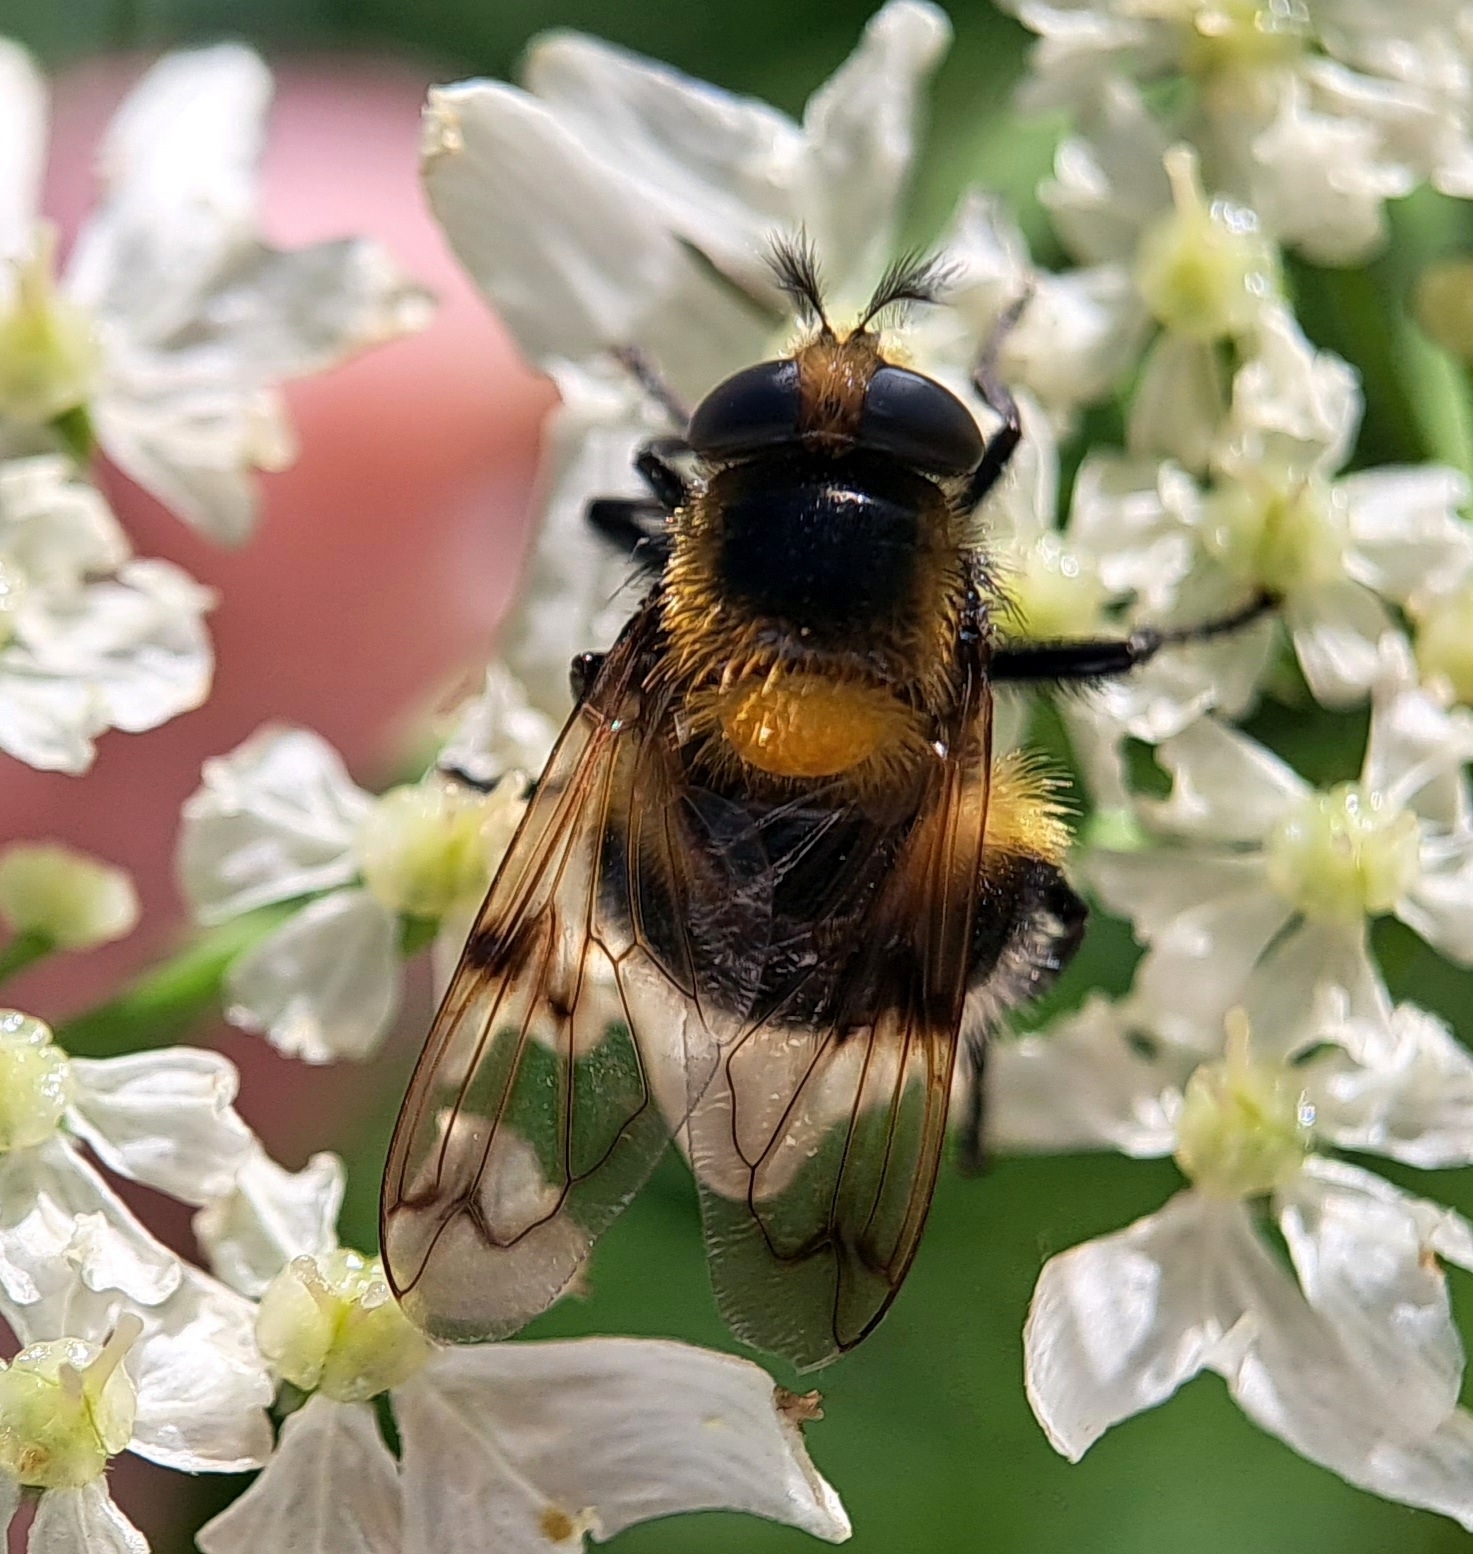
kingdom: Animalia
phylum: Arthropoda
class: Insecta
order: Diptera
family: Syrphidae
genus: Volucella
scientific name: Volucella bombylans
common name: Bumble bee hover fly
